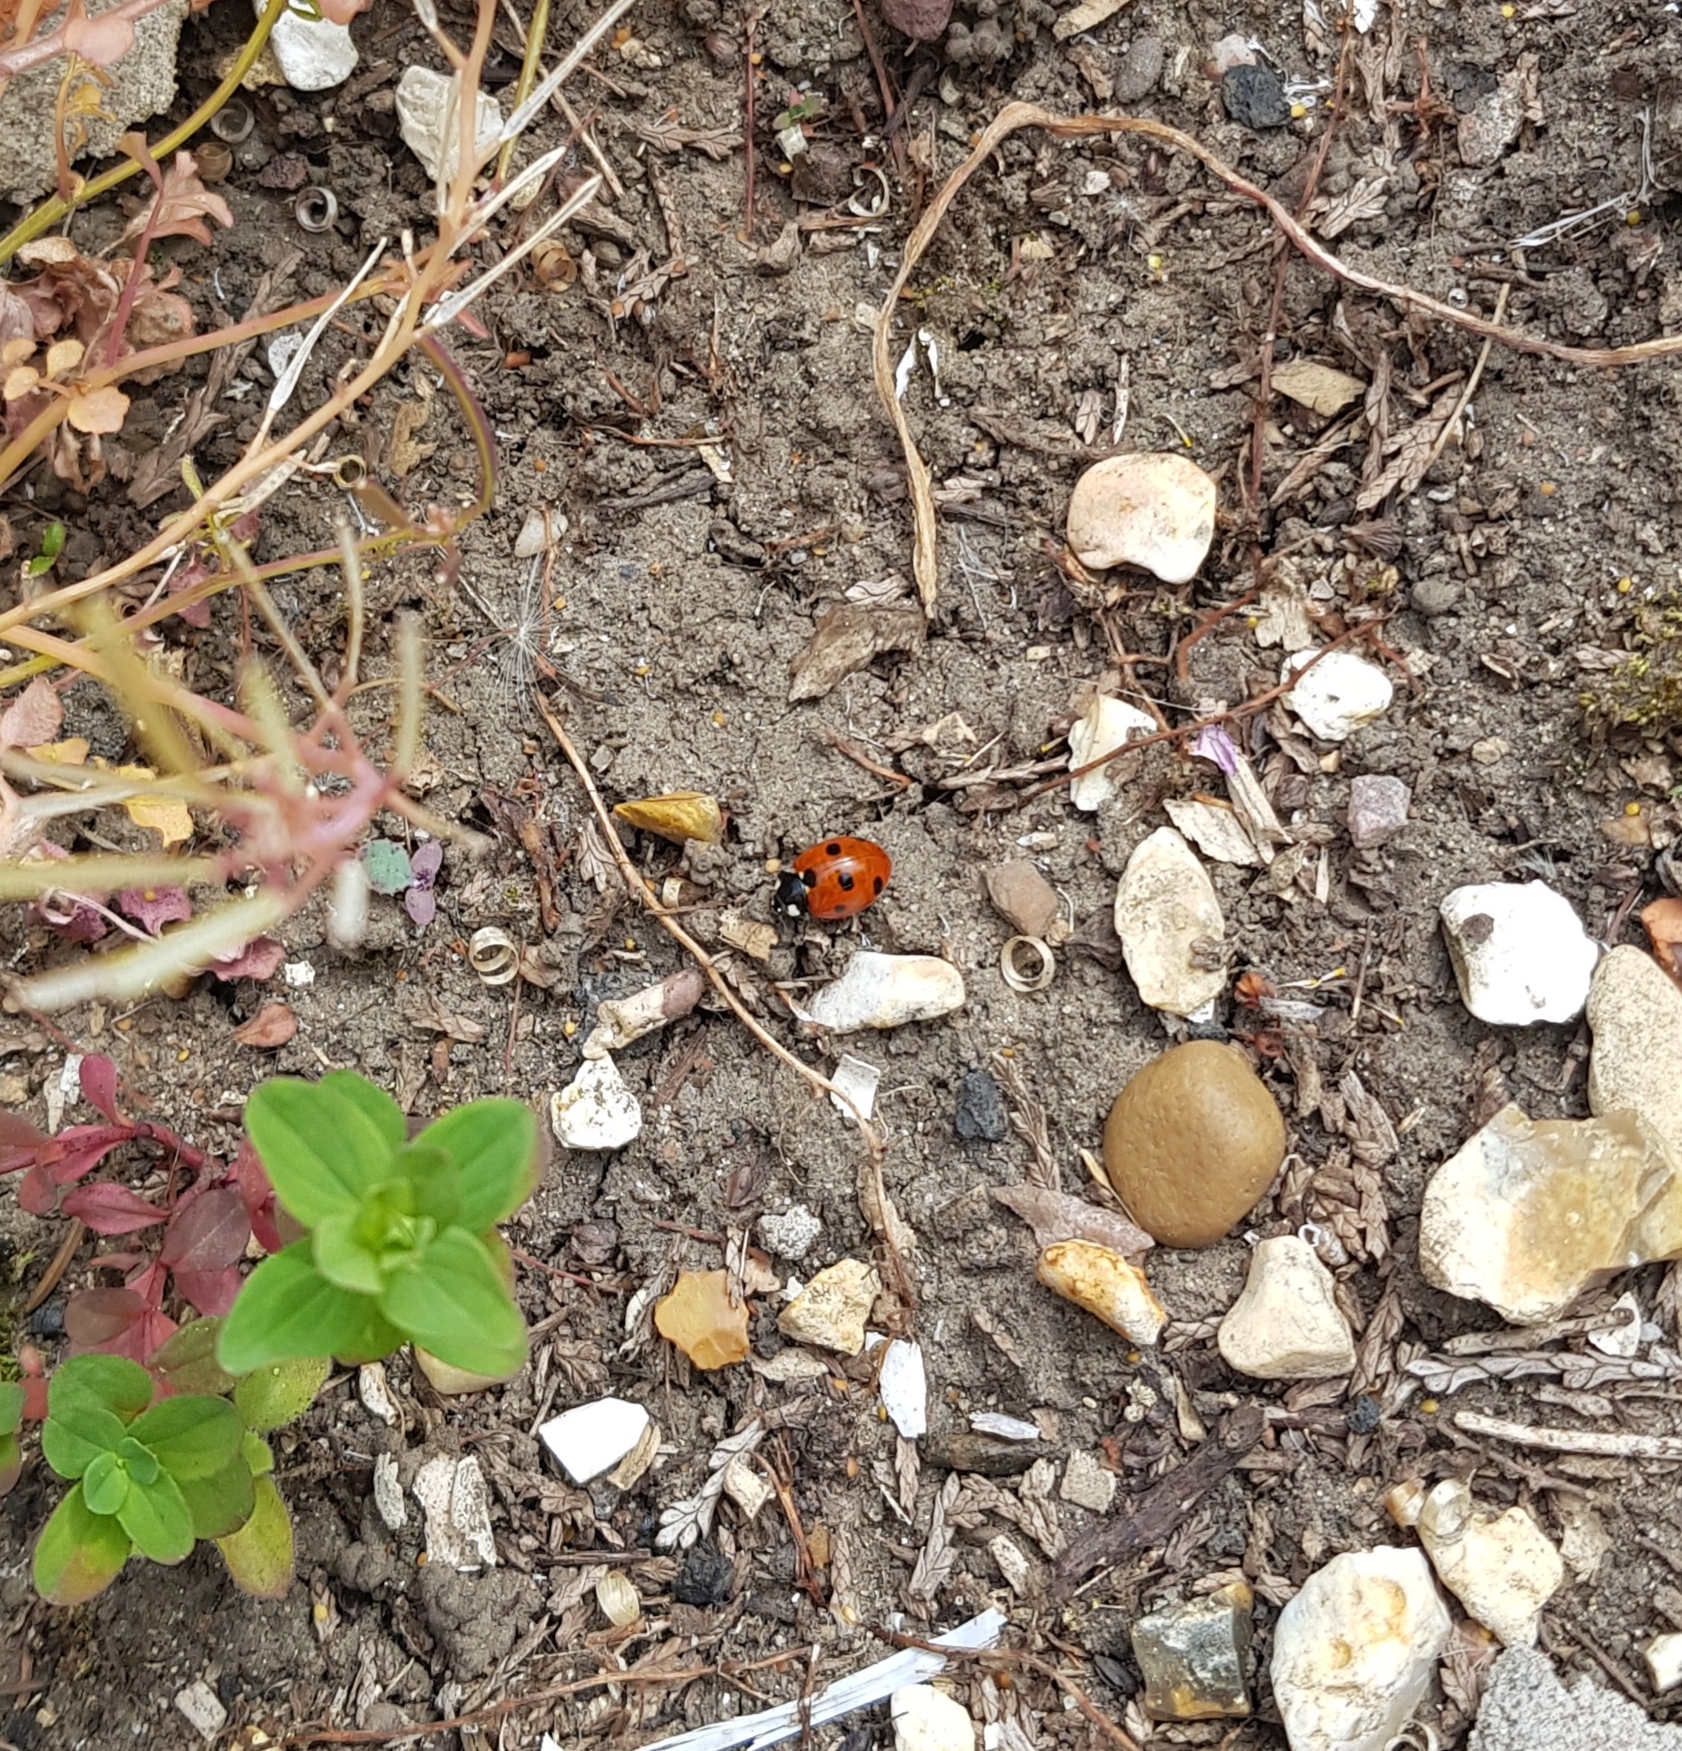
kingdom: Animalia
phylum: Arthropoda
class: Insecta
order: Coleoptera
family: Coccinellidae
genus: Coccinella
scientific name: Coccinella septempunctata
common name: Sevenspotted lady beetle
